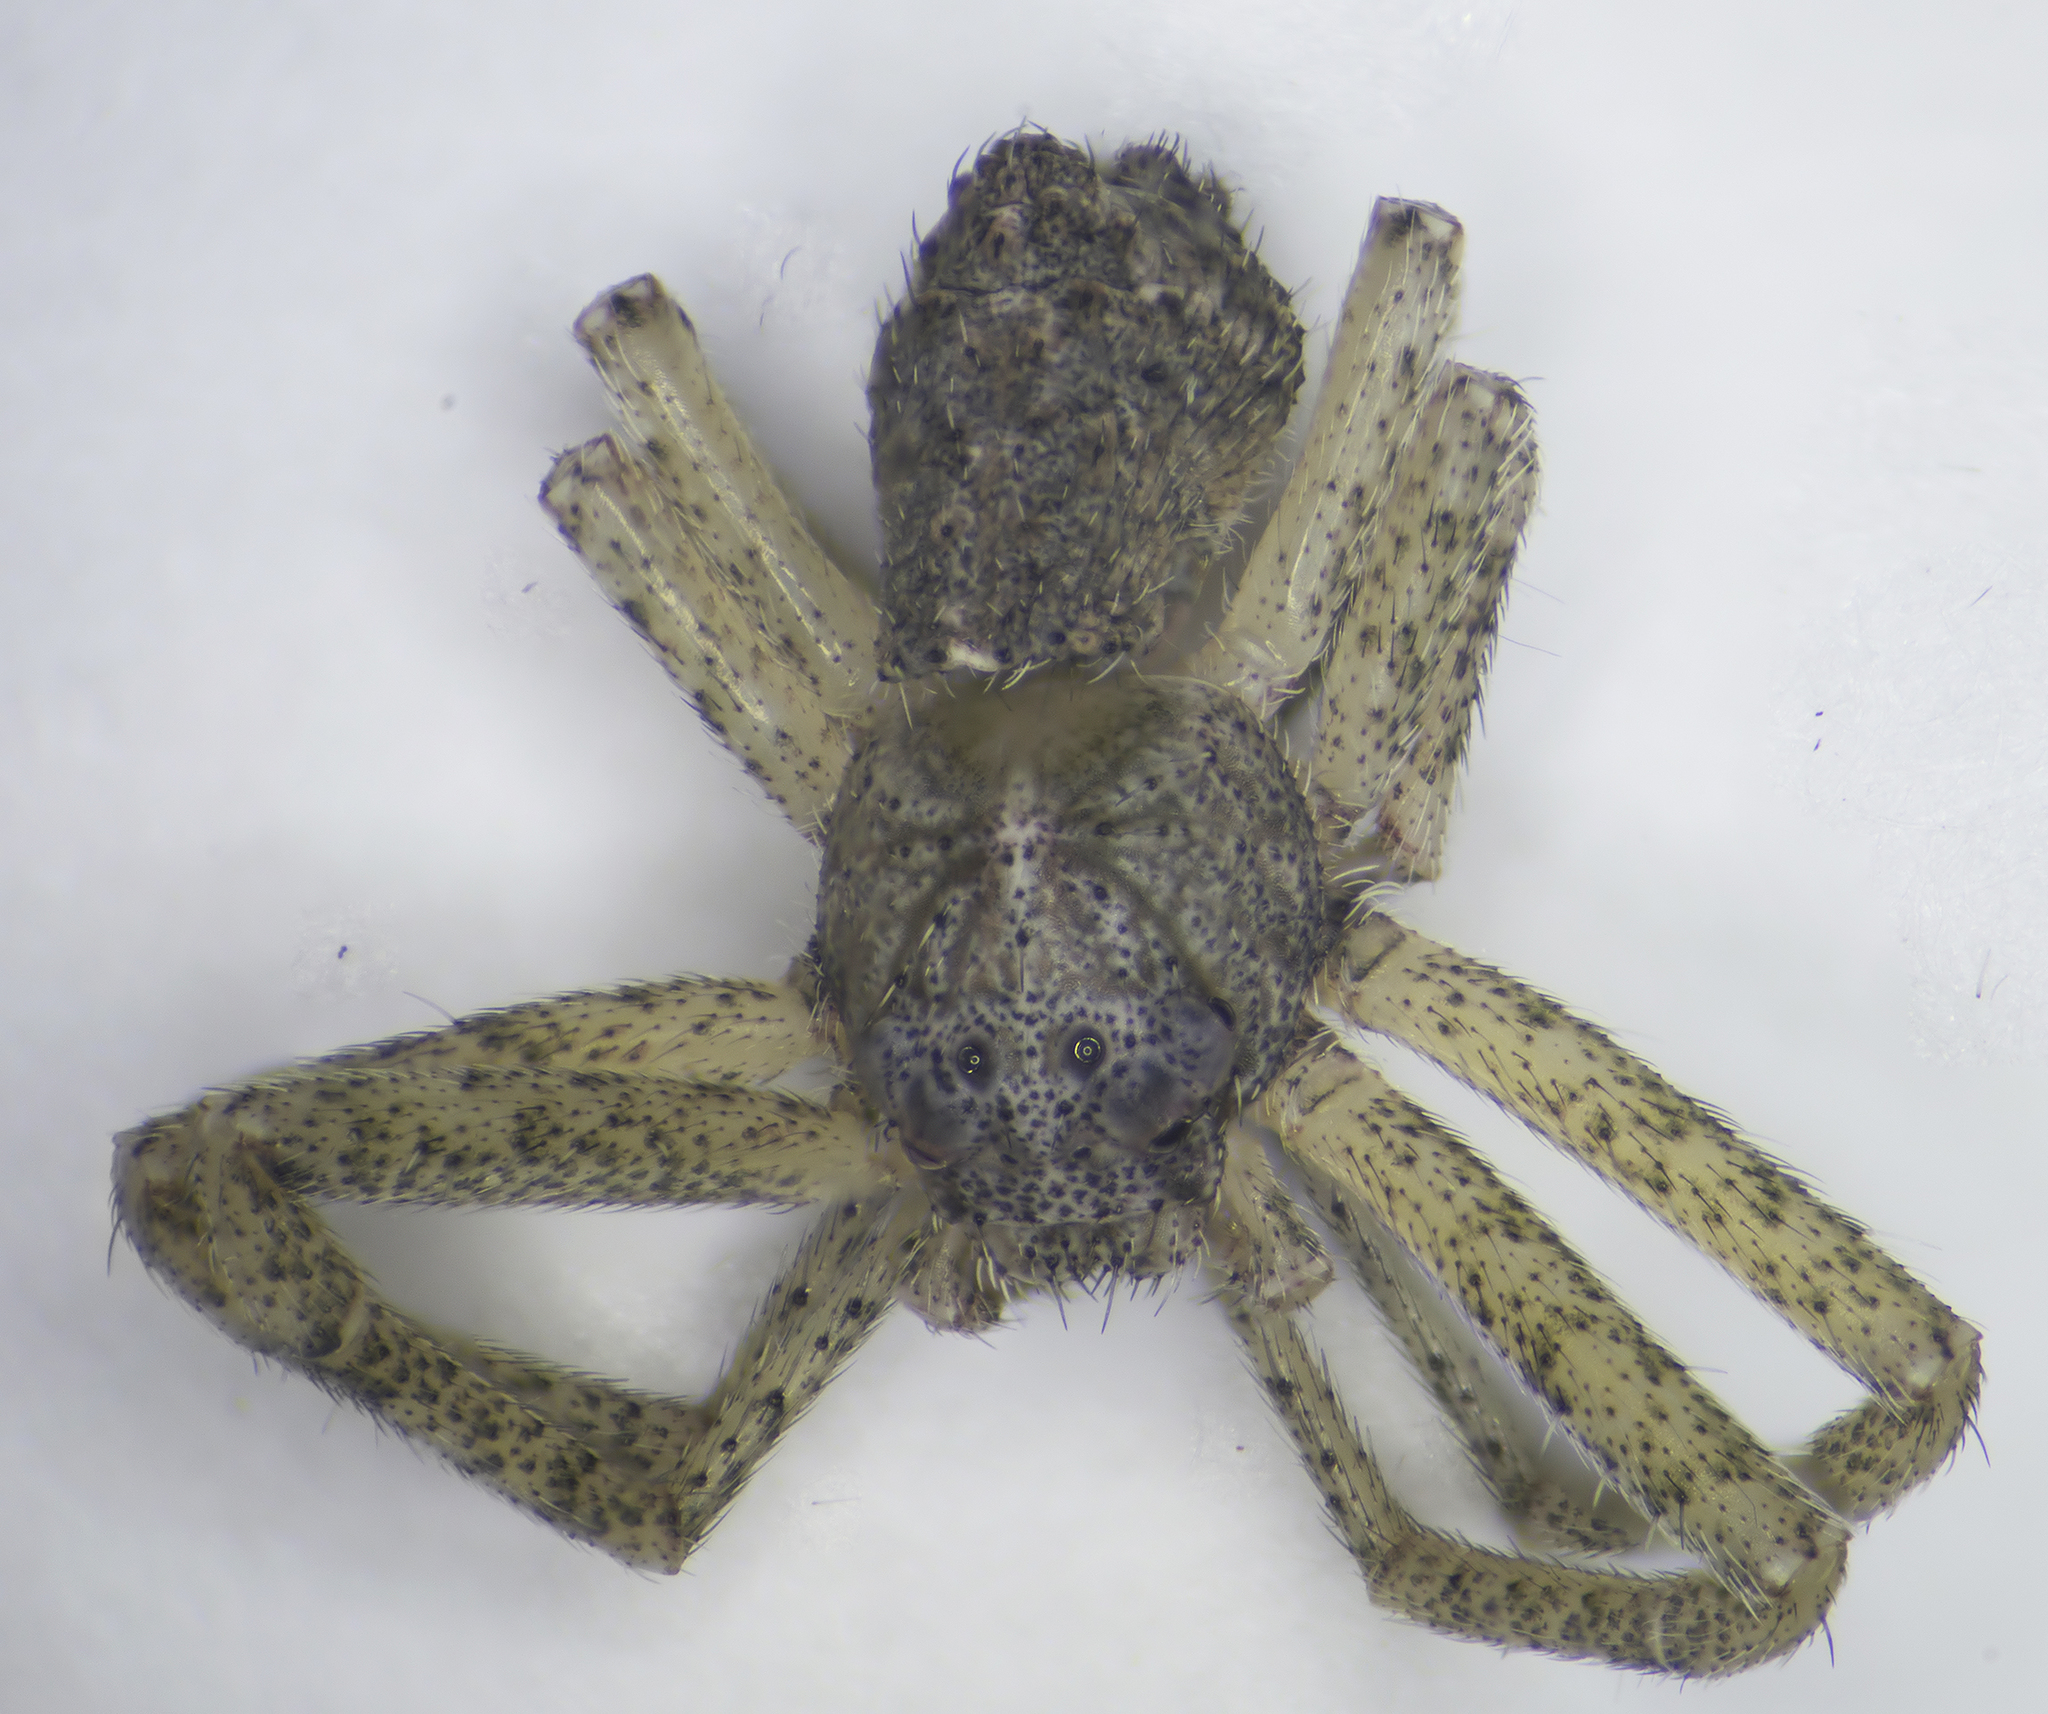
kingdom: Animalia
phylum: Arthropoda
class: Arachnida
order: Araneae
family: Thomisidae
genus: Tmarus
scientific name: Tmarus piger
